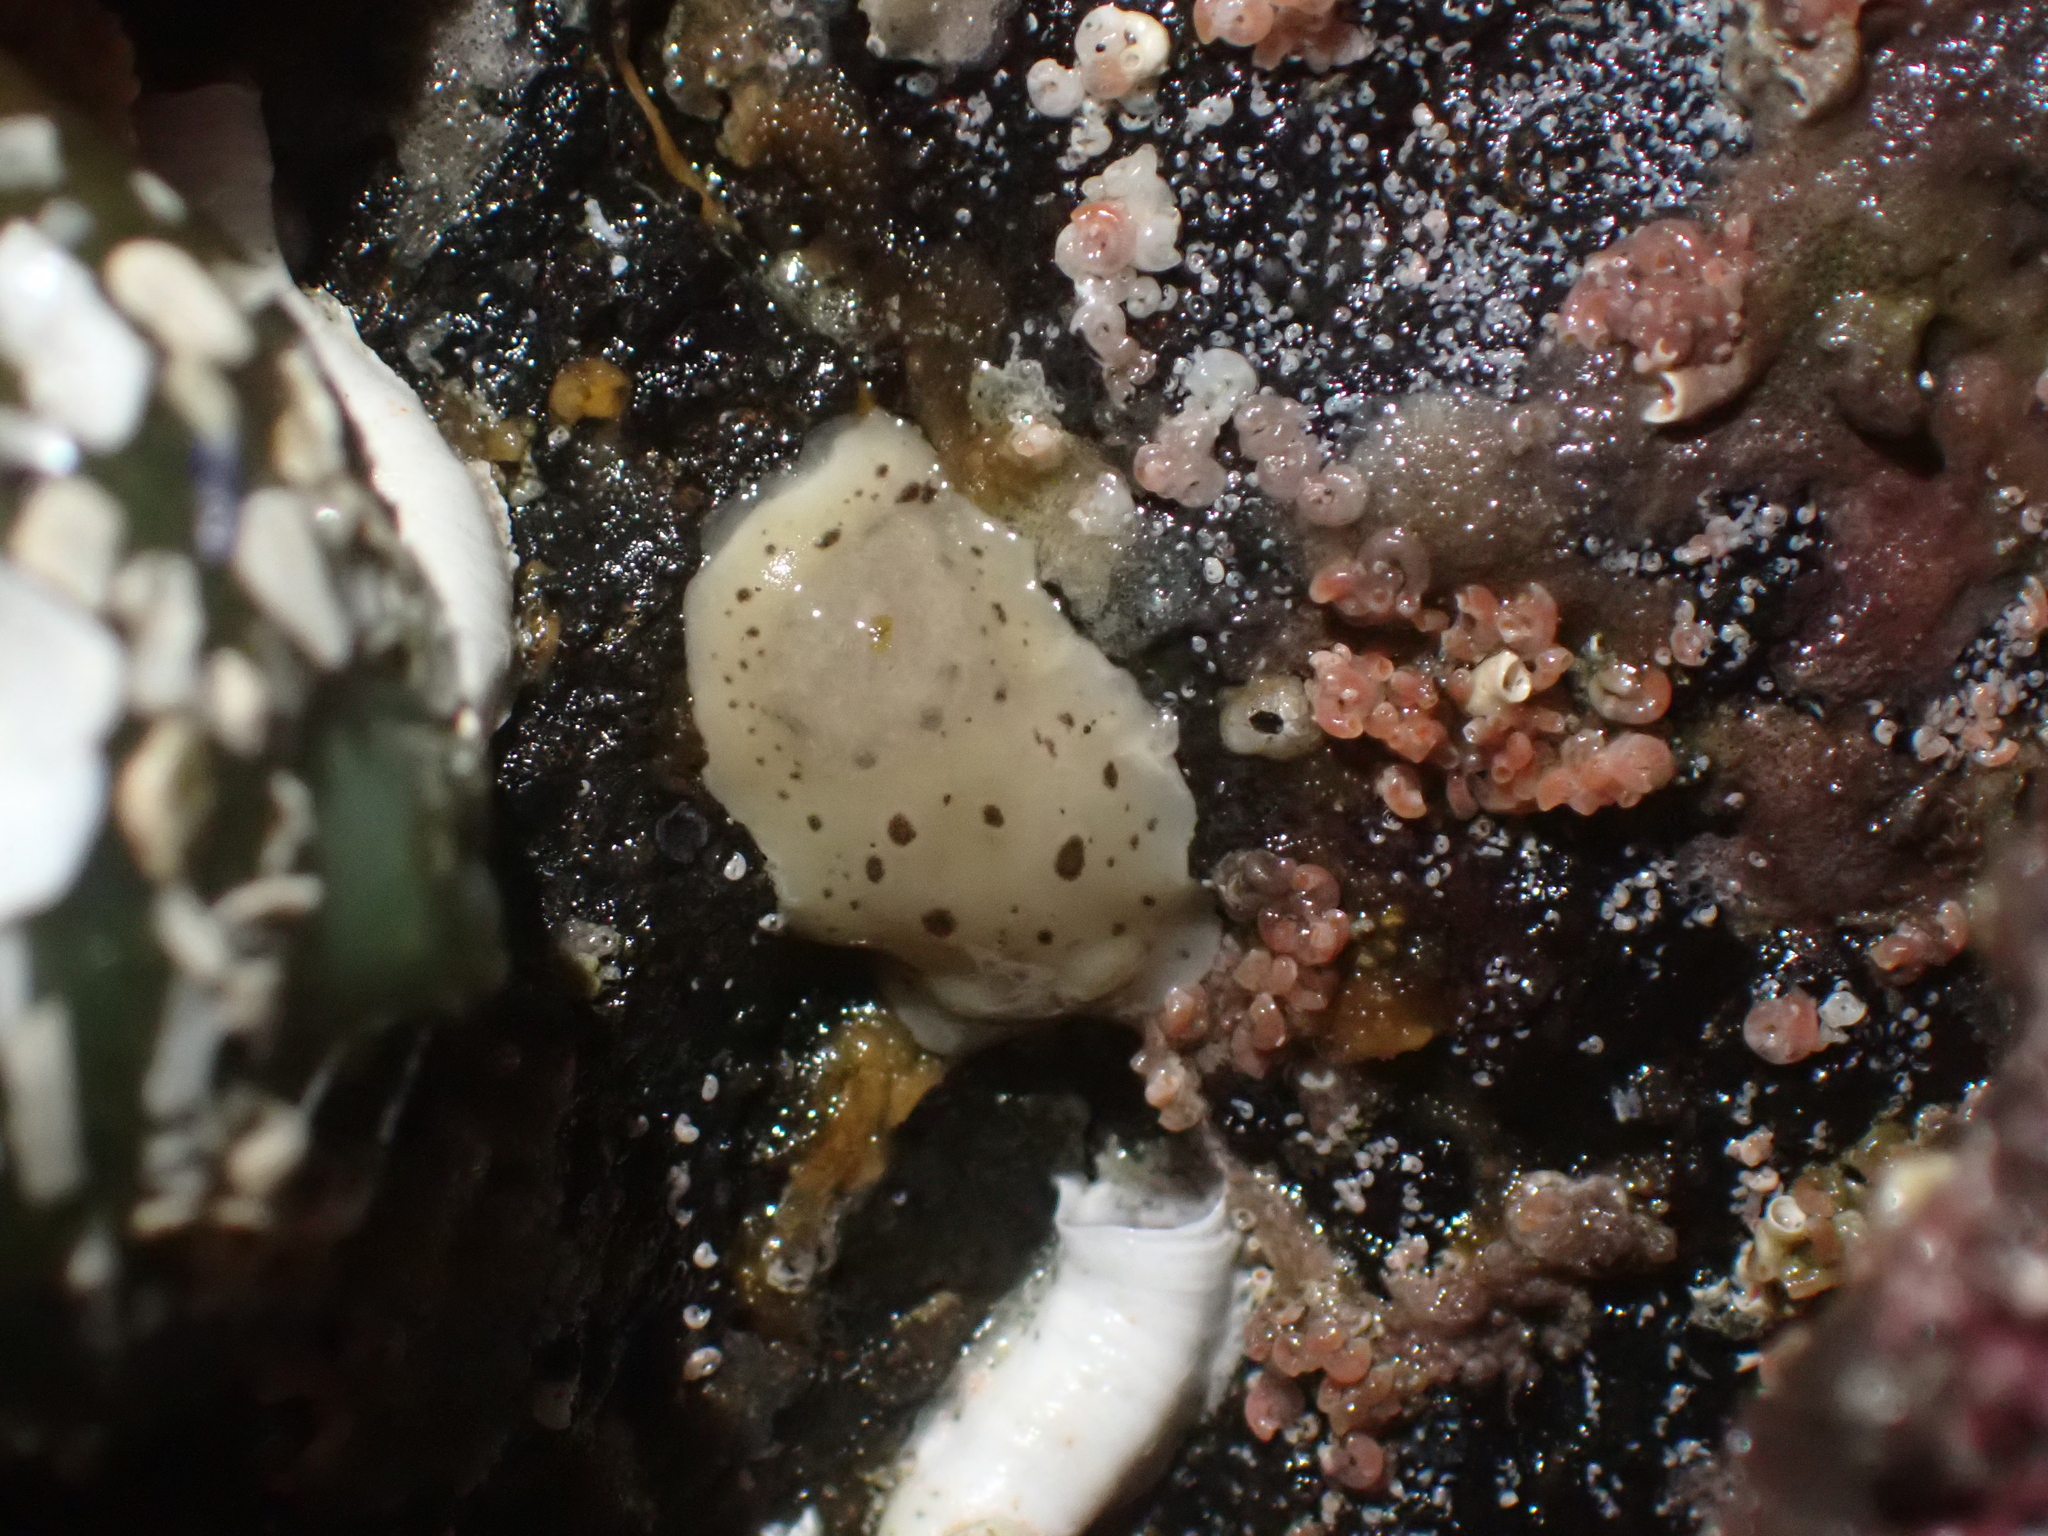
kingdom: Animalia
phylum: Mollusca
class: Gastropoda
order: Nudibranchia
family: Discodorididae
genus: Diaulula
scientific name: Diaulula odonoghuei
